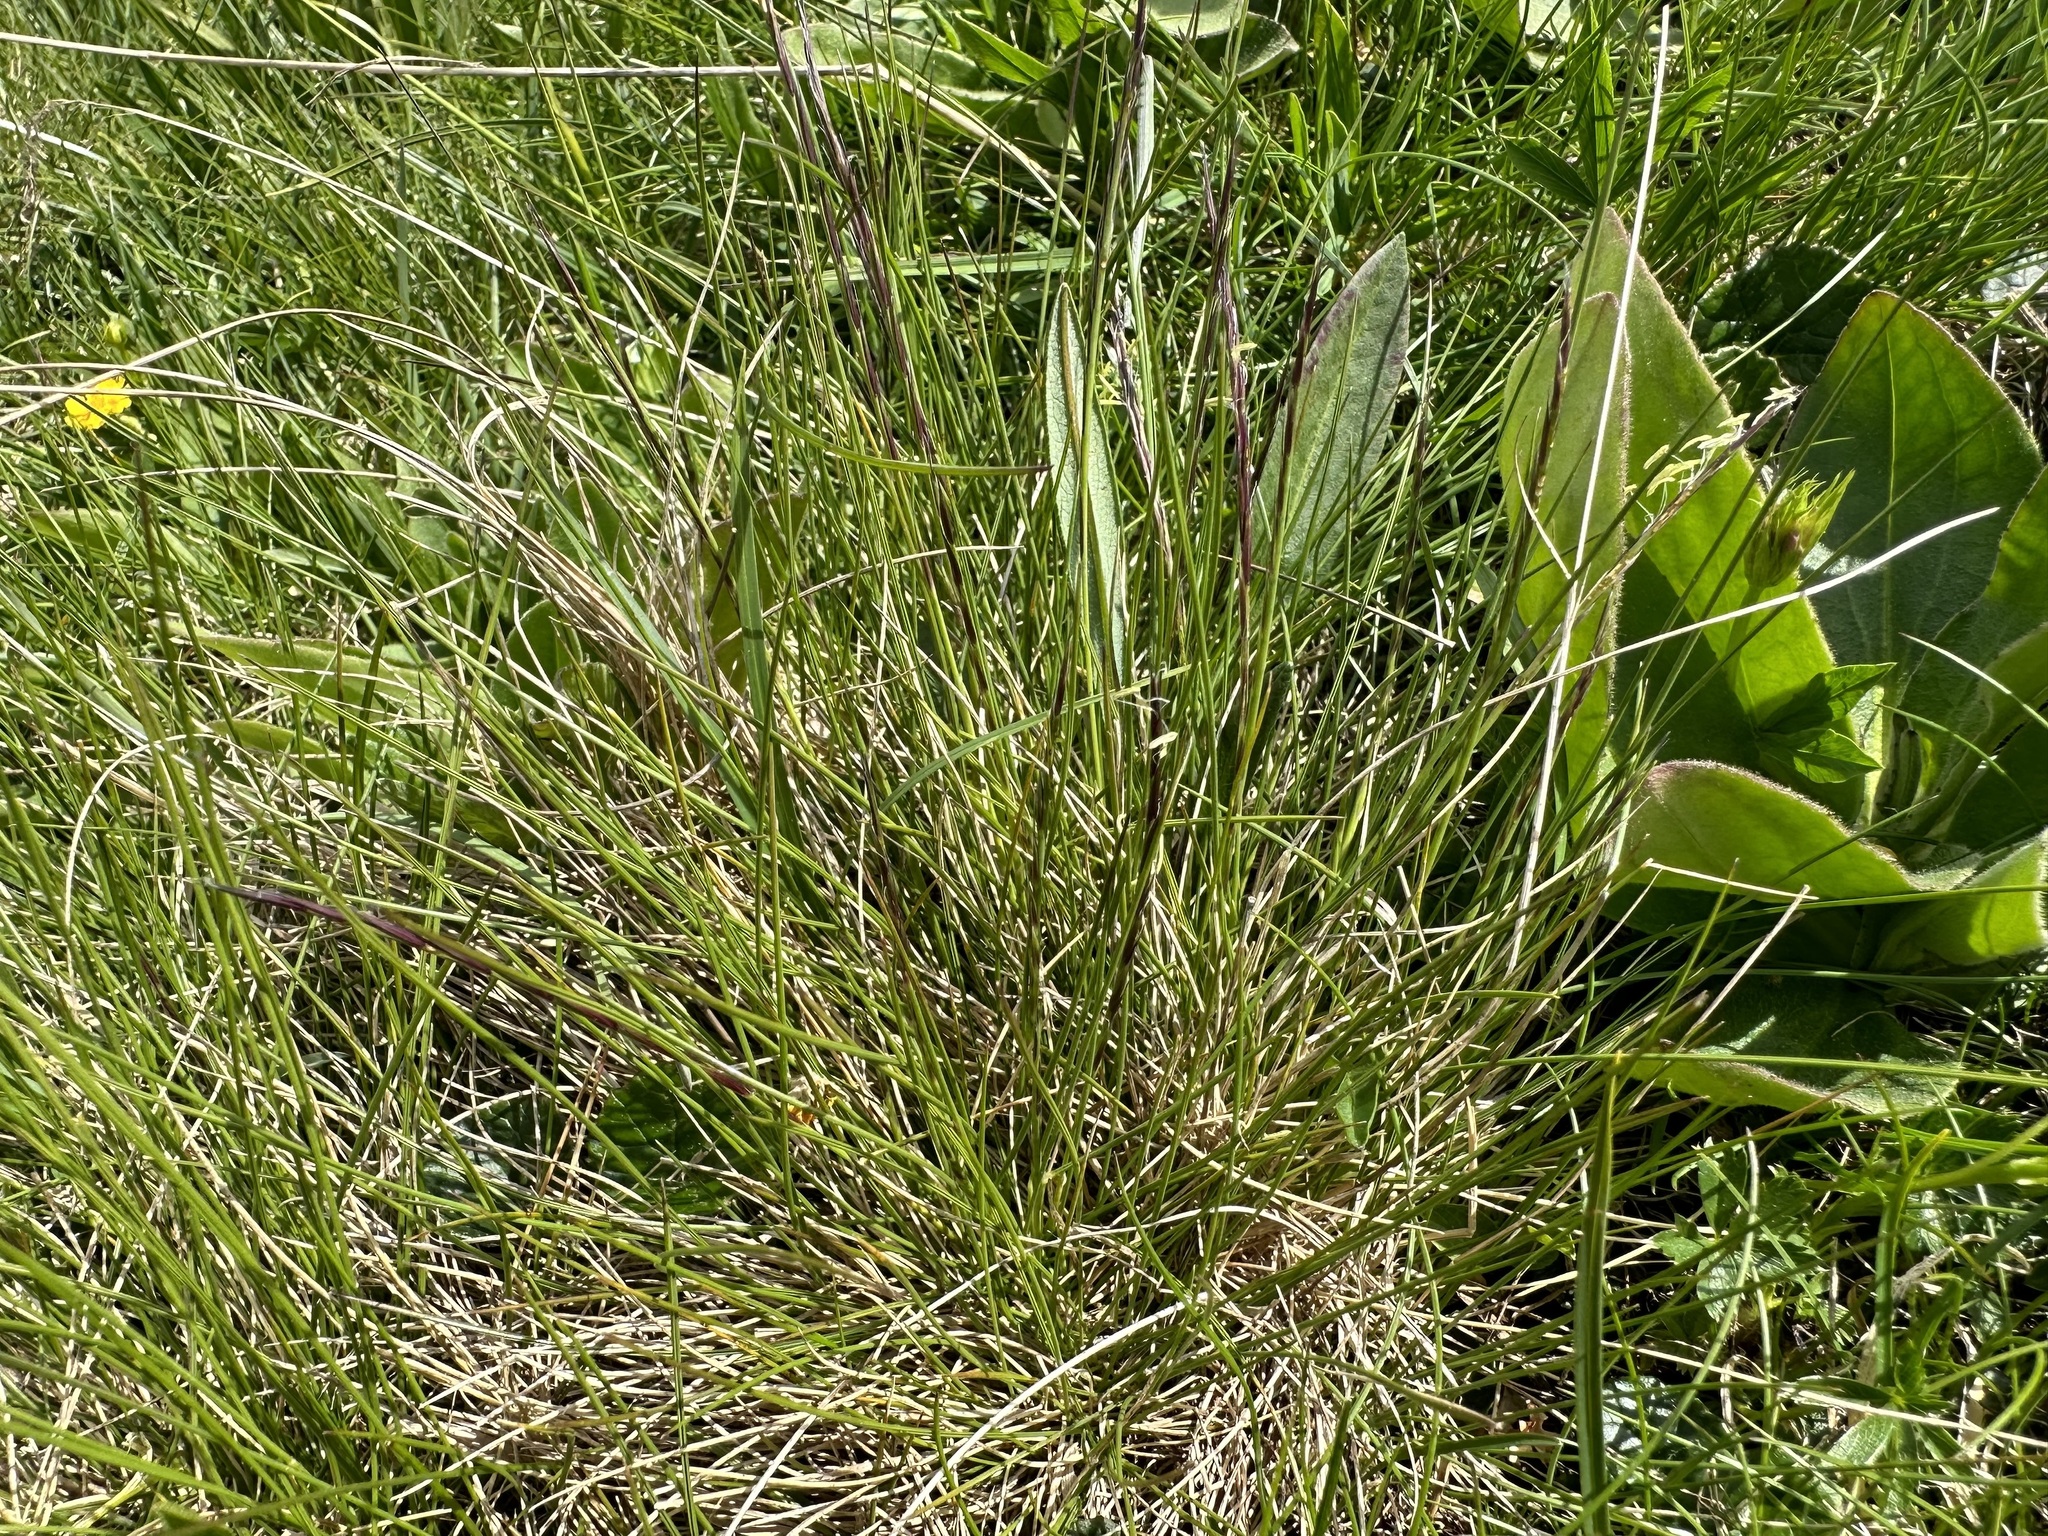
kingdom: Plantae
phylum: Tracheophyta
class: Liliopsida
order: Poales
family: Poaceae
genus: Nardus
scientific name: Nardus stricta
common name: Mat-grass
